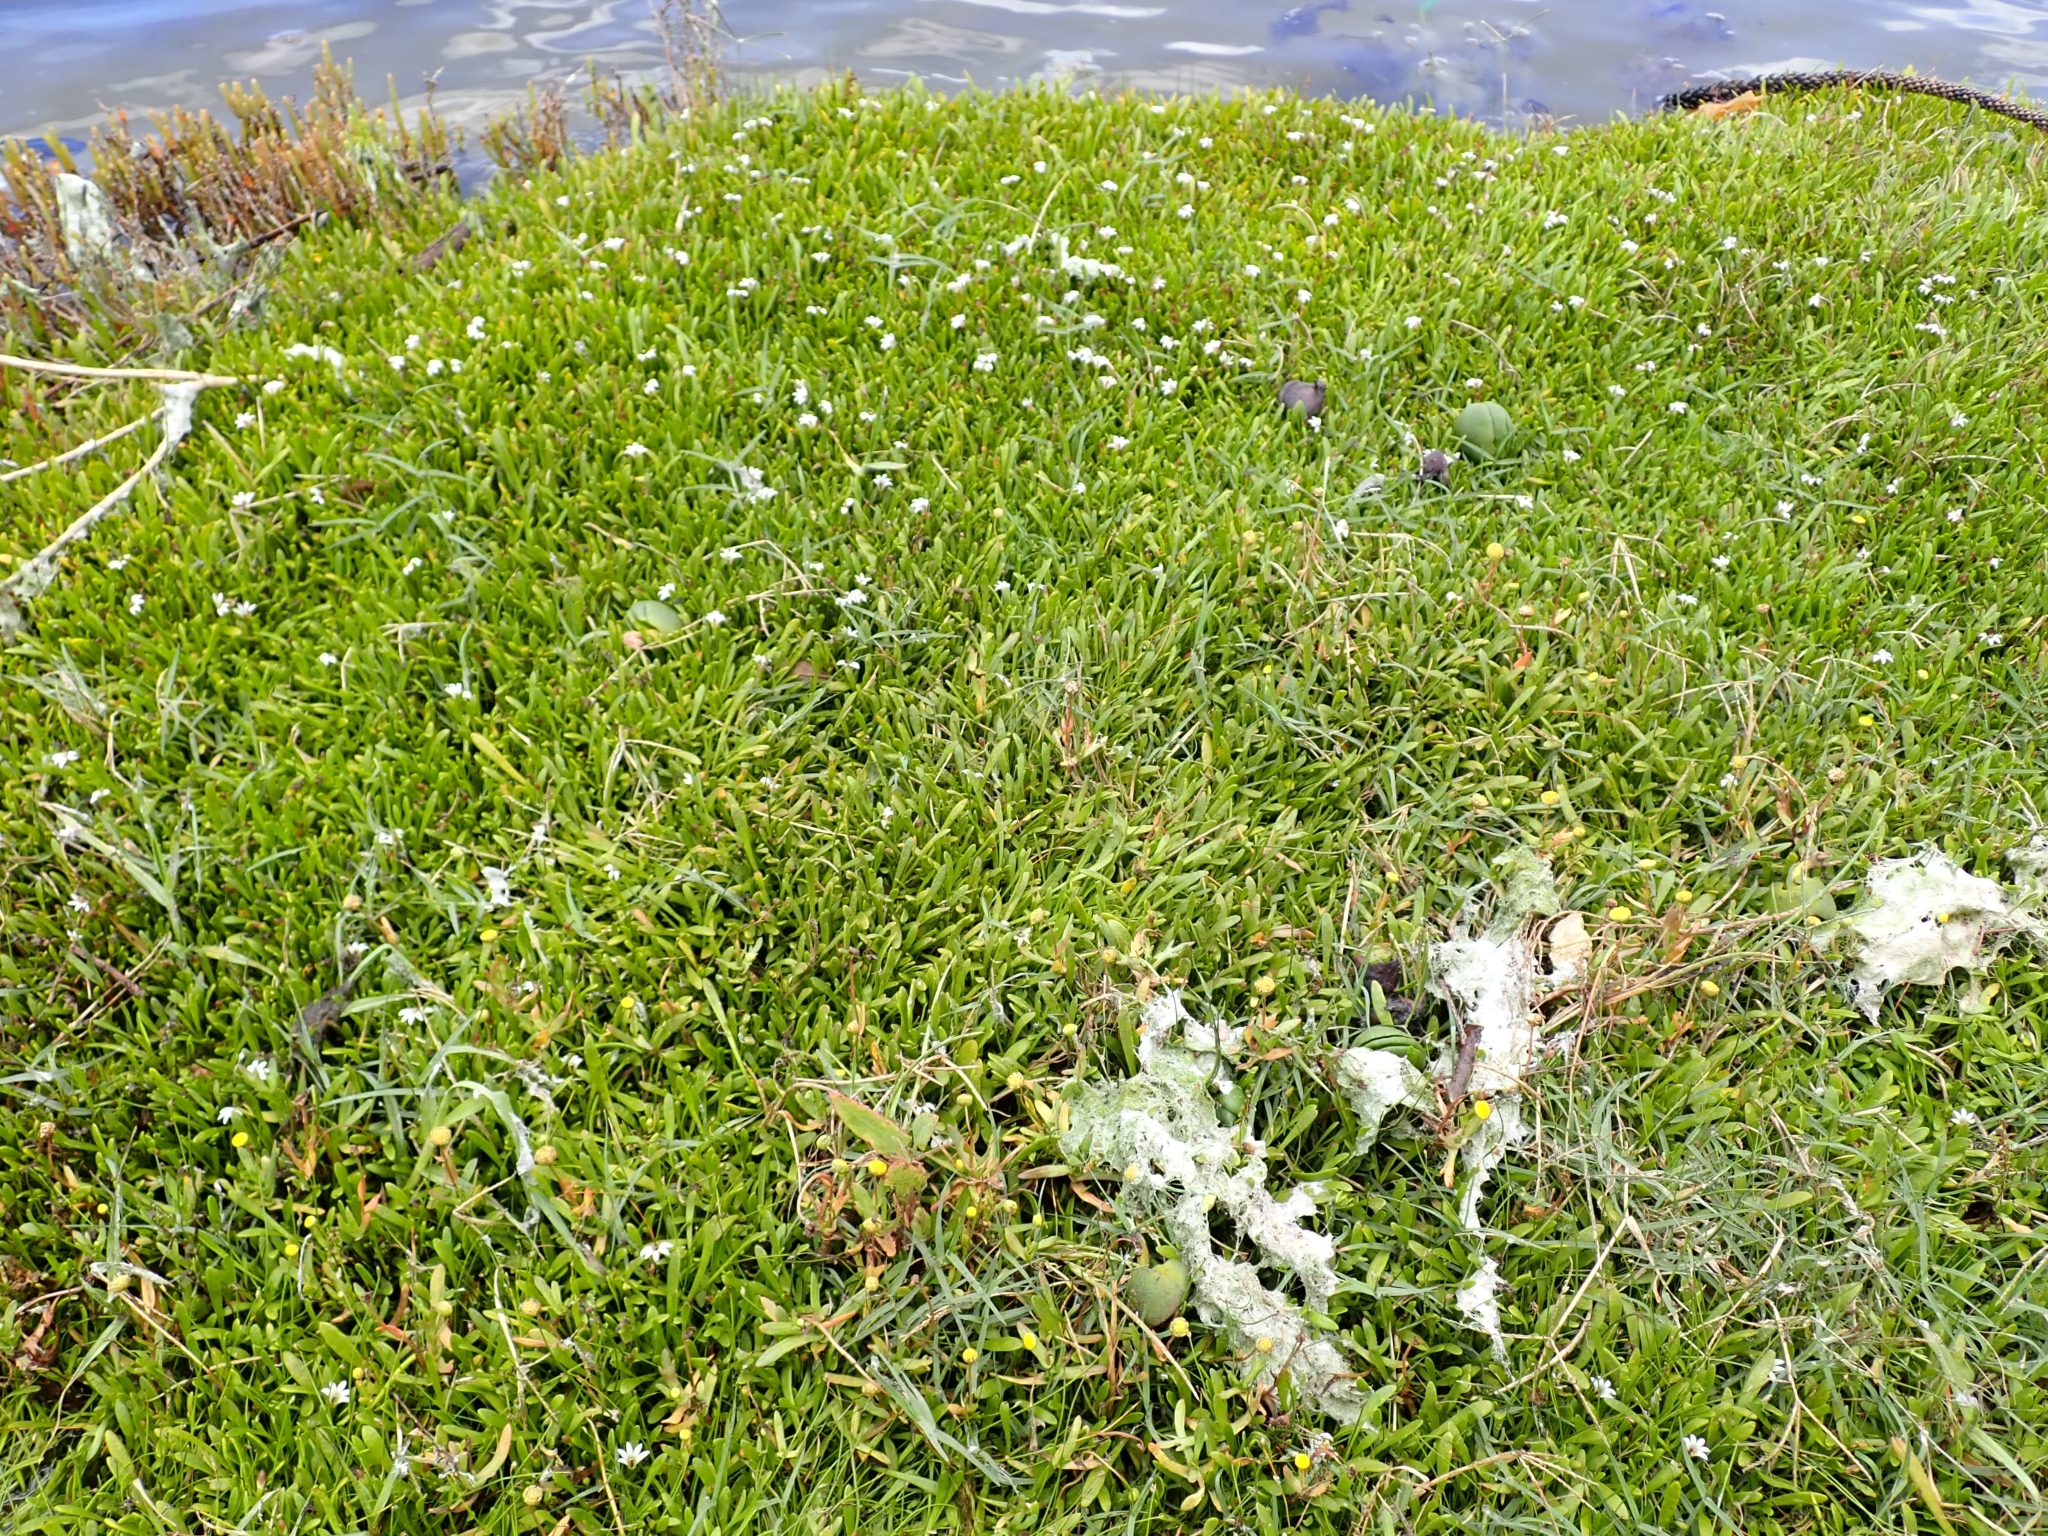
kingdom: Plantae
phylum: Tracheophyta
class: Magnoliopsida
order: Asterales
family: Goodeniaceae
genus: Goodenia
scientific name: Goodenia radicans
